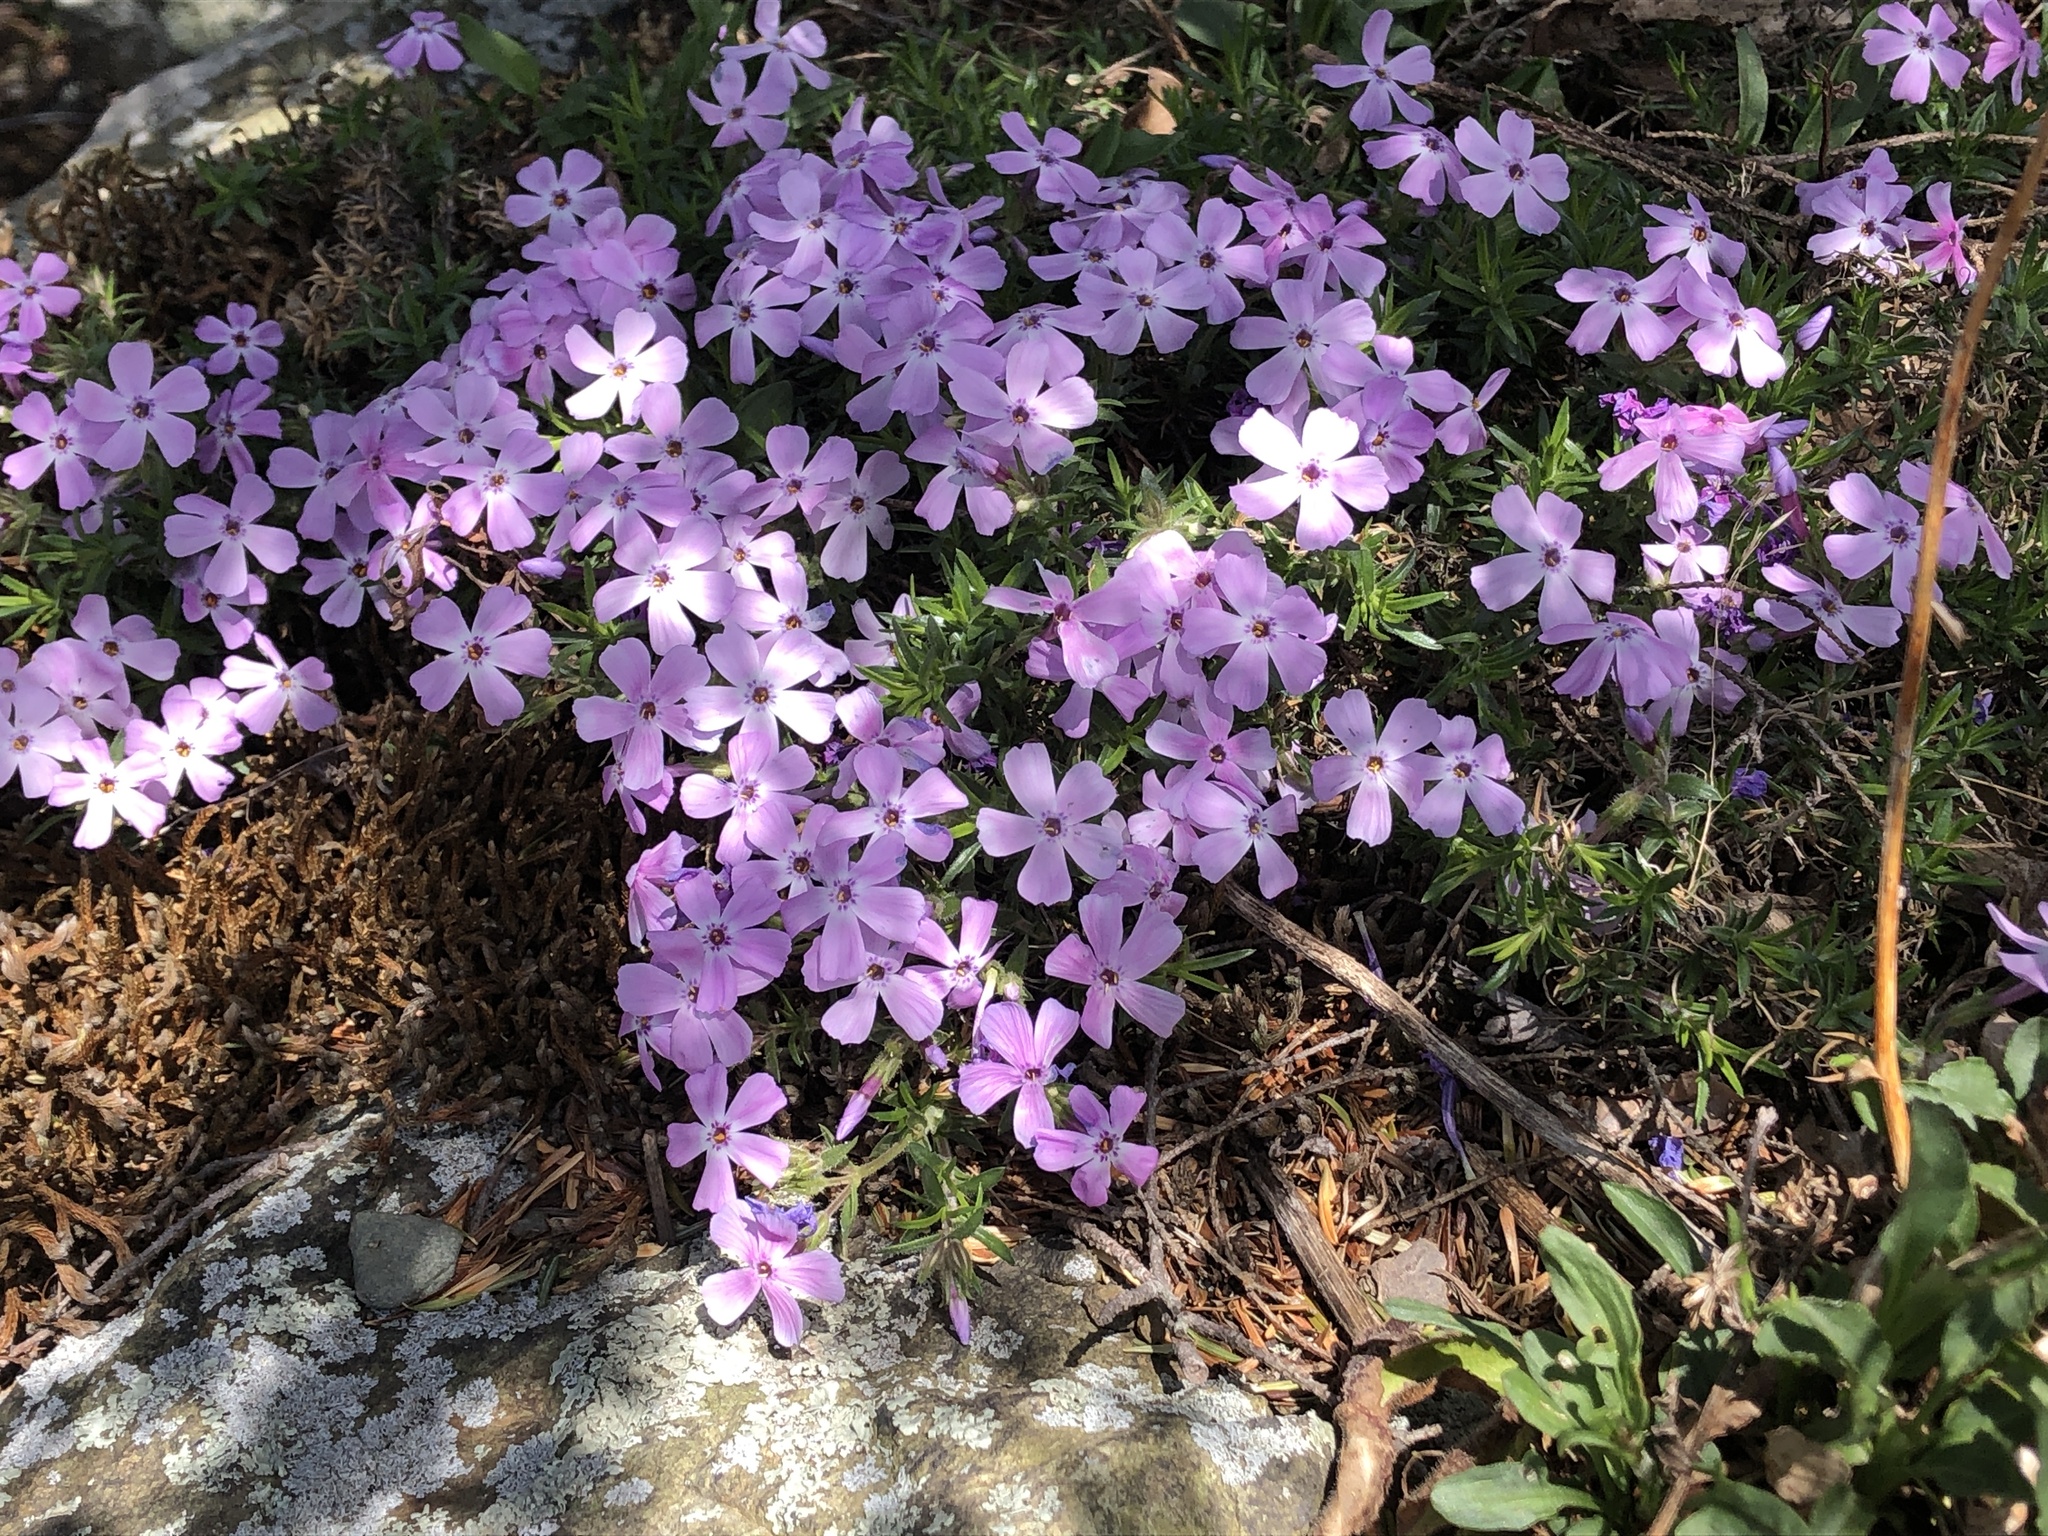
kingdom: Plantae
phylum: Tracheophyta
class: Magnoliopsida
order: Ericales
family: Polemoniaceae
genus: Phlox
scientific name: Phlox subulata
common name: Moss phlox
